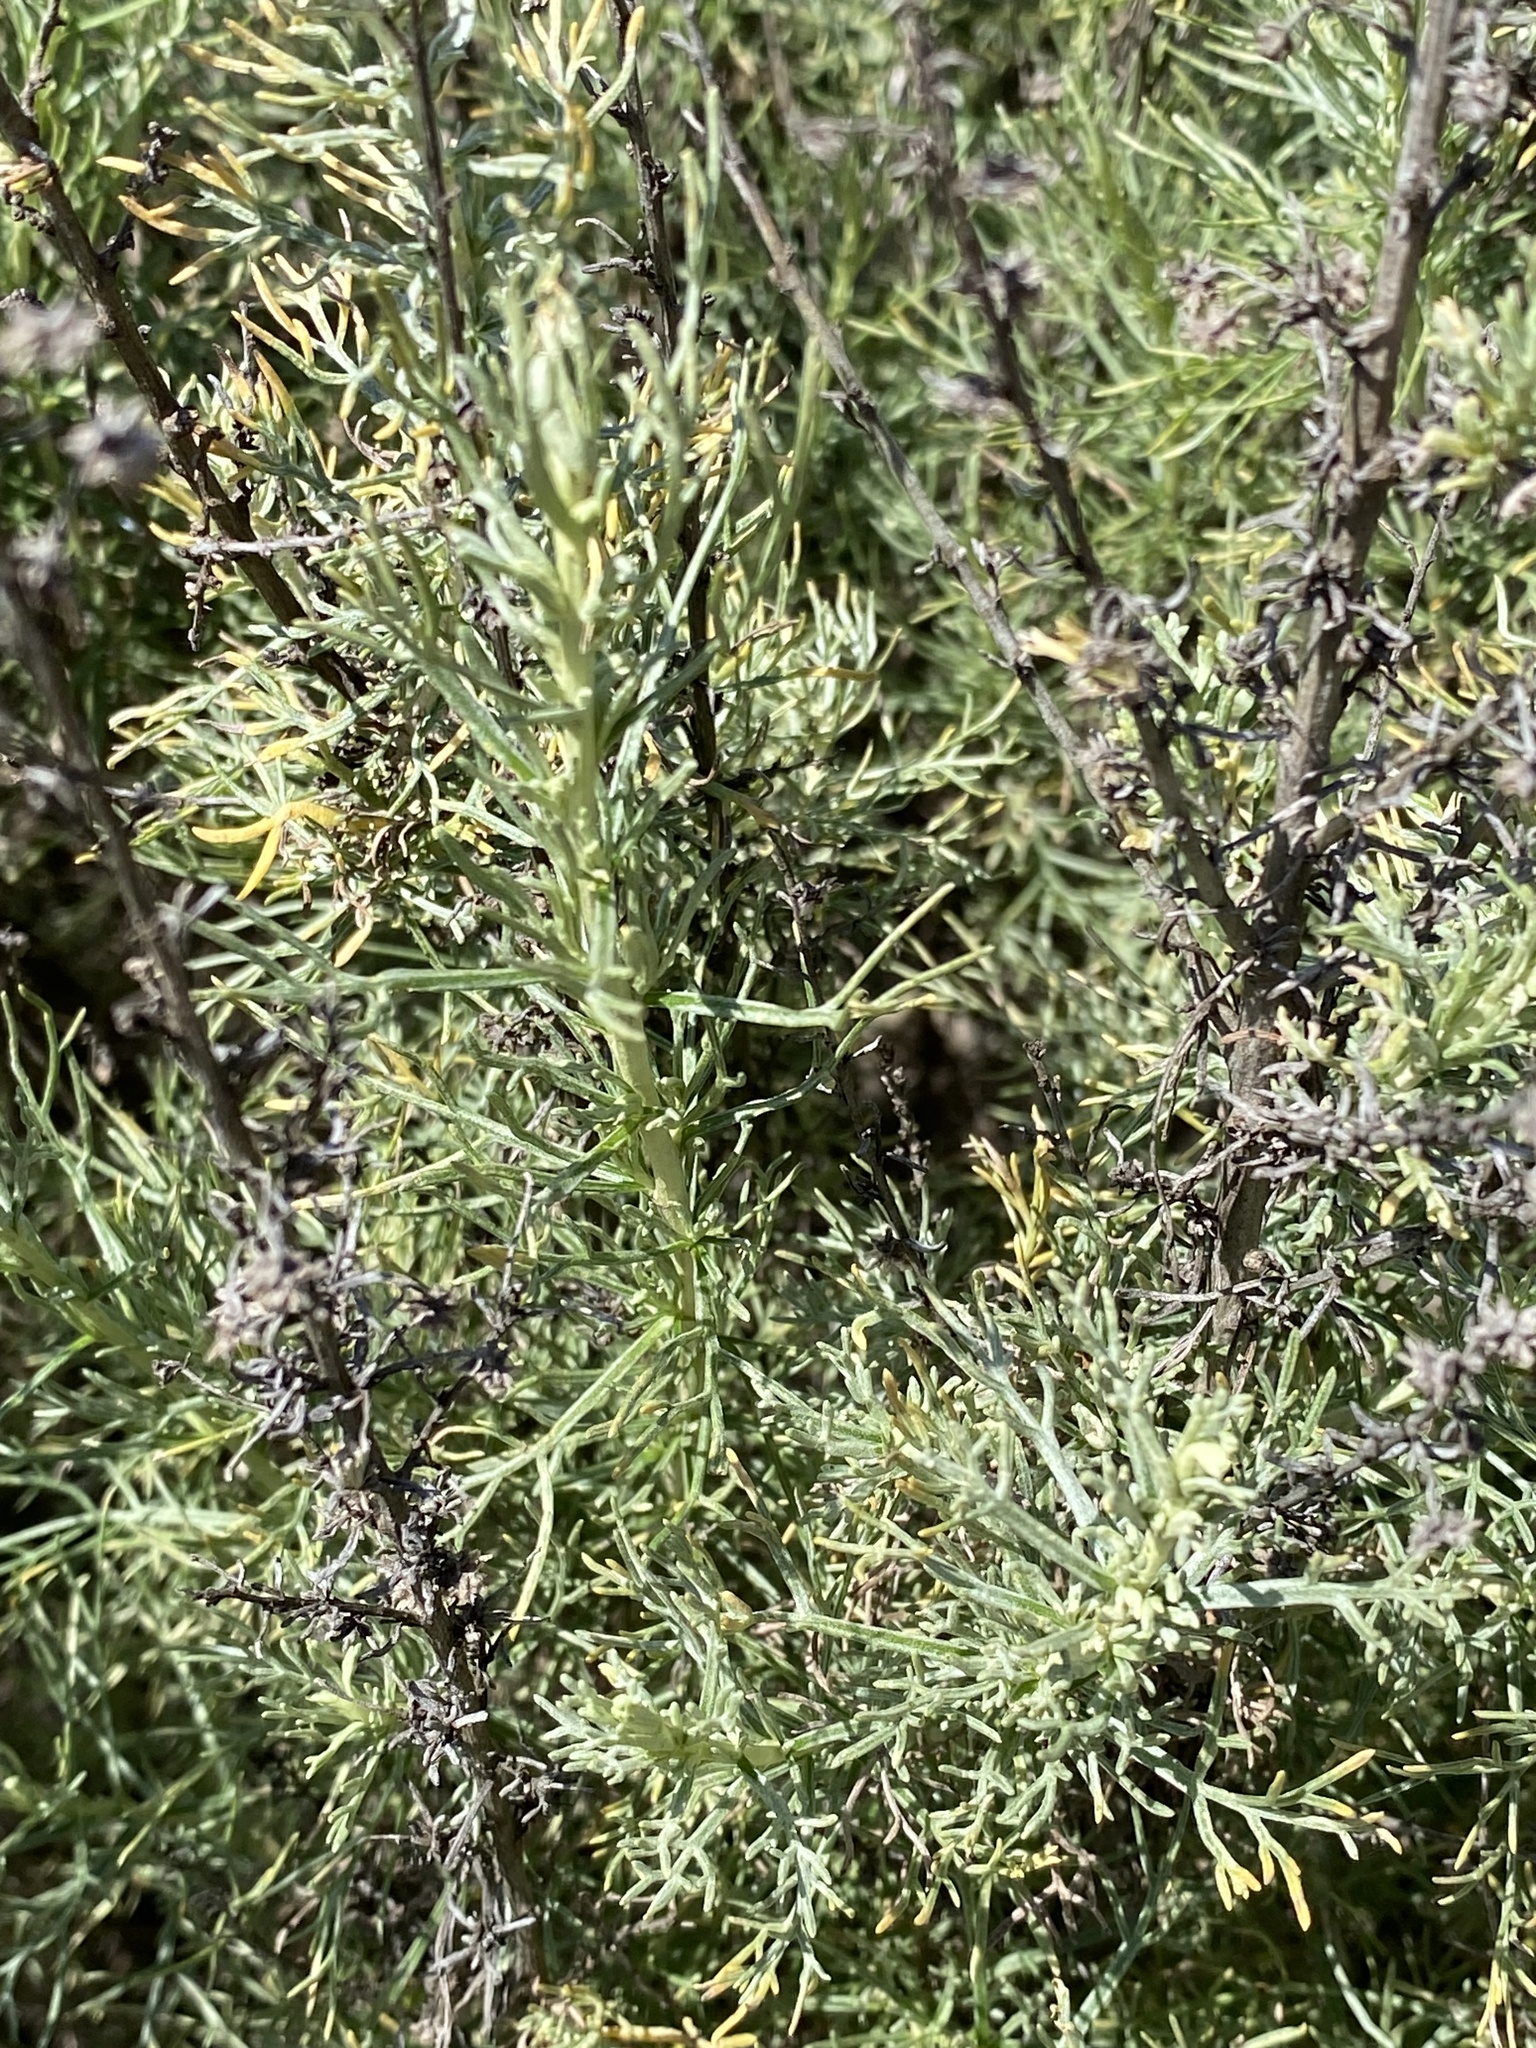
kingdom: Plantae
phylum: Tracheophyta
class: Magnoliopsida
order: Asterales
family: Asteraceae
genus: Artemisia
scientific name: Artemisia californica
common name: California sagebrush
